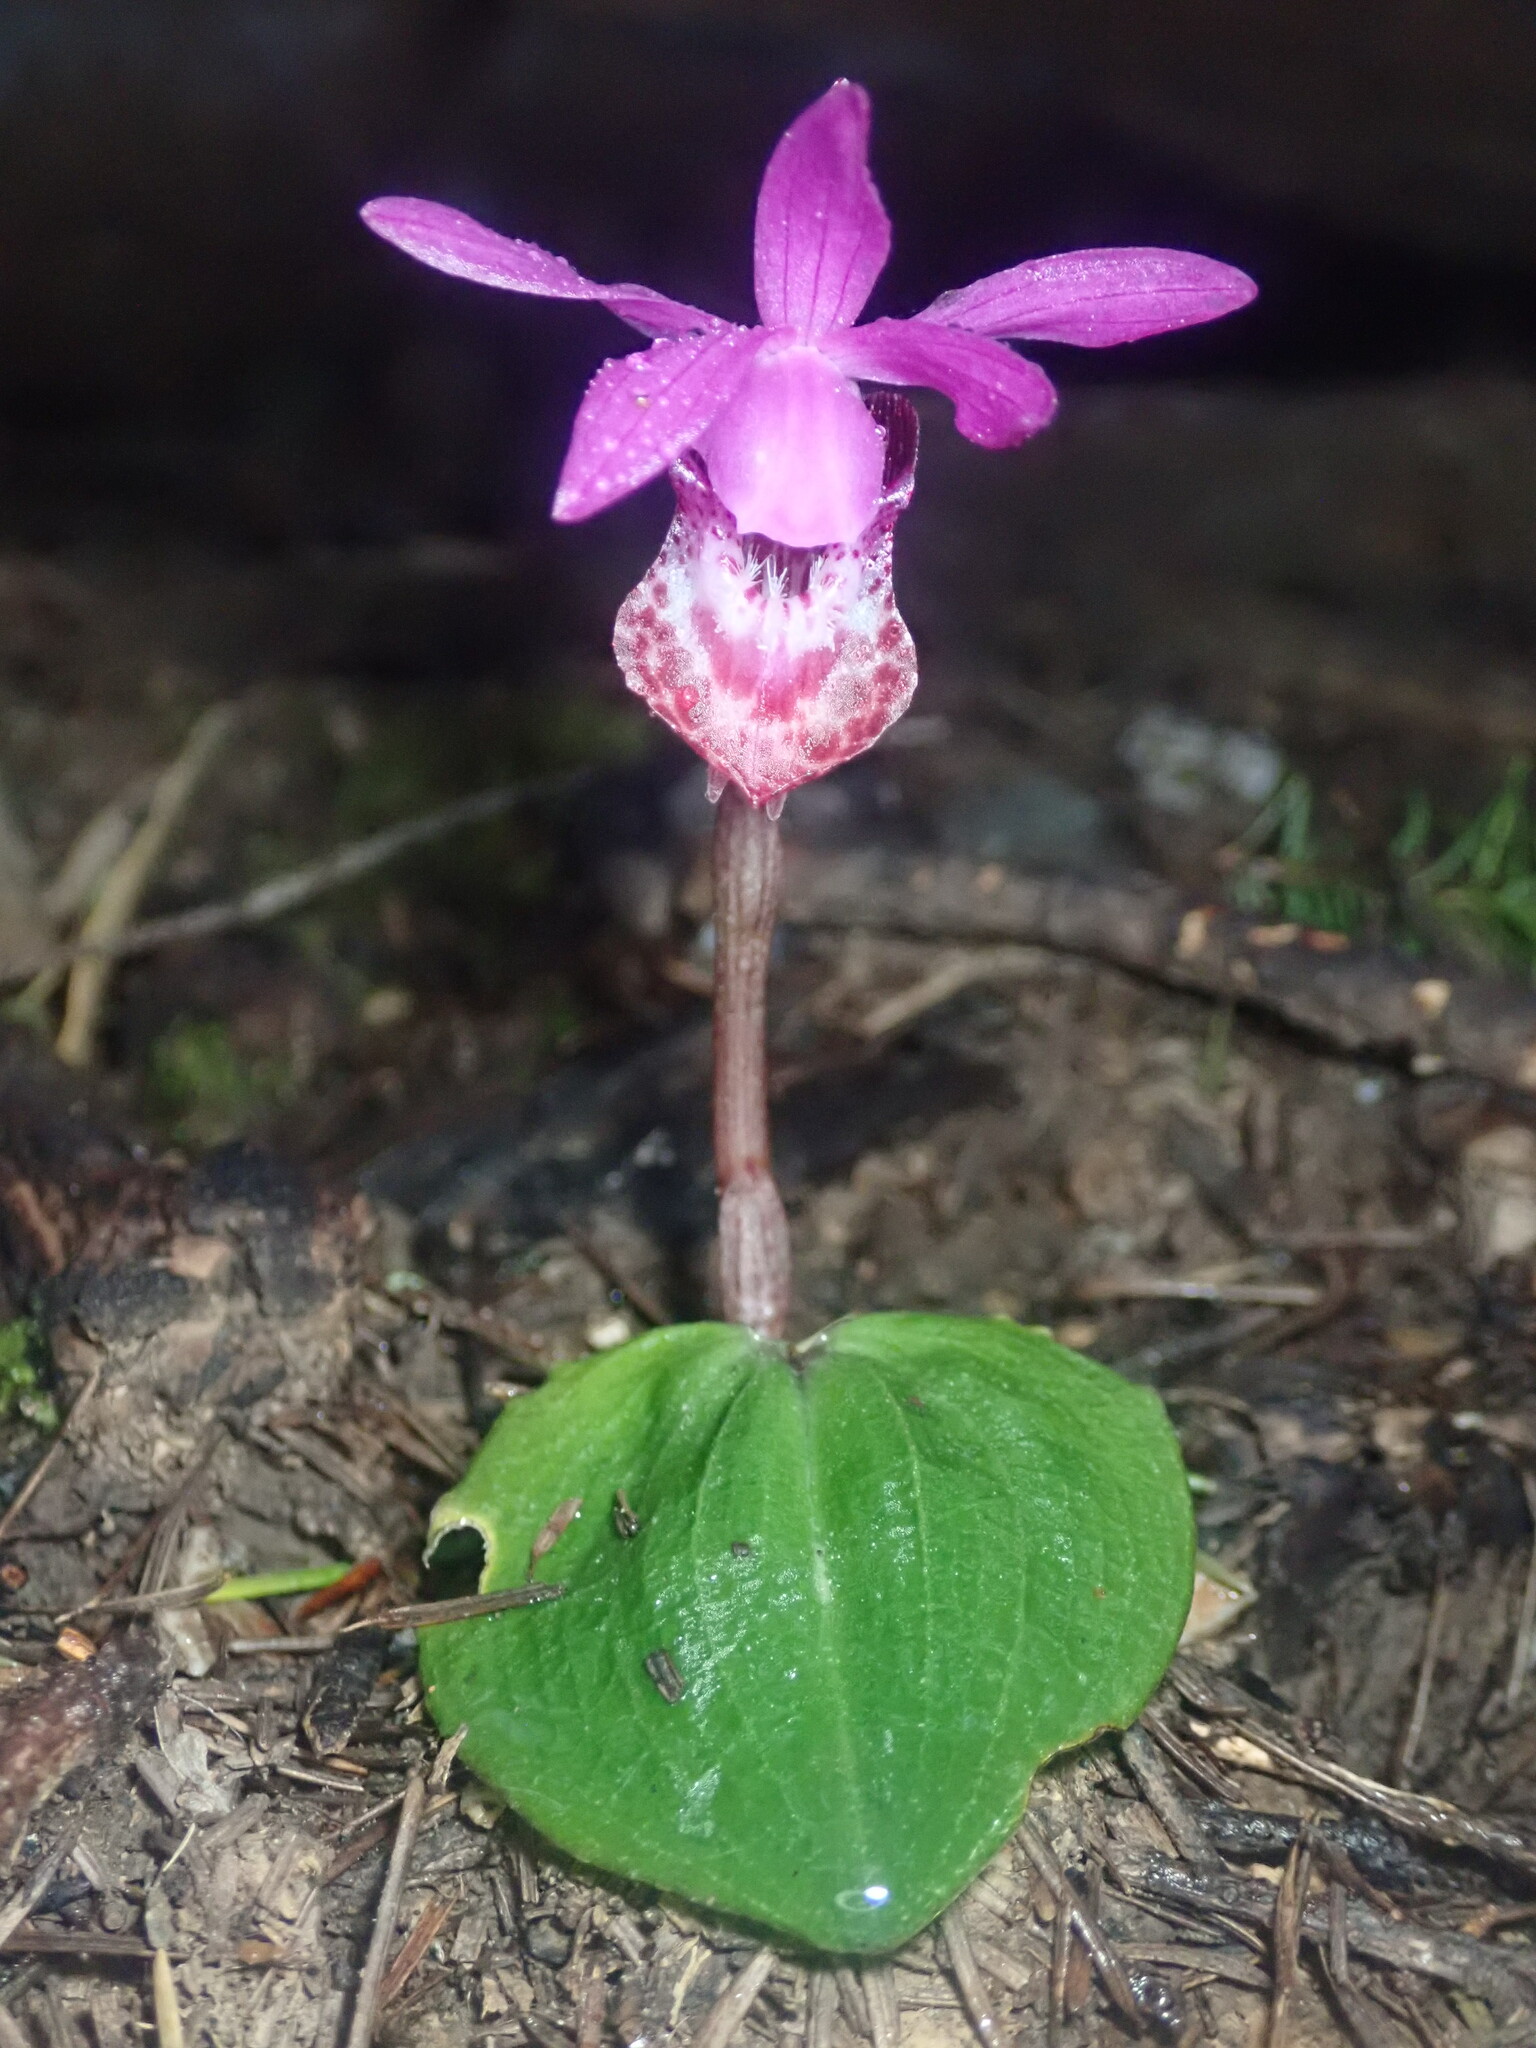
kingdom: Plantae
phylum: Tracheophyta
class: Liliopsida
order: Asparagales
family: Orchidaceae
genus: Calypso
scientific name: Calypso bulbosa
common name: Calypso
